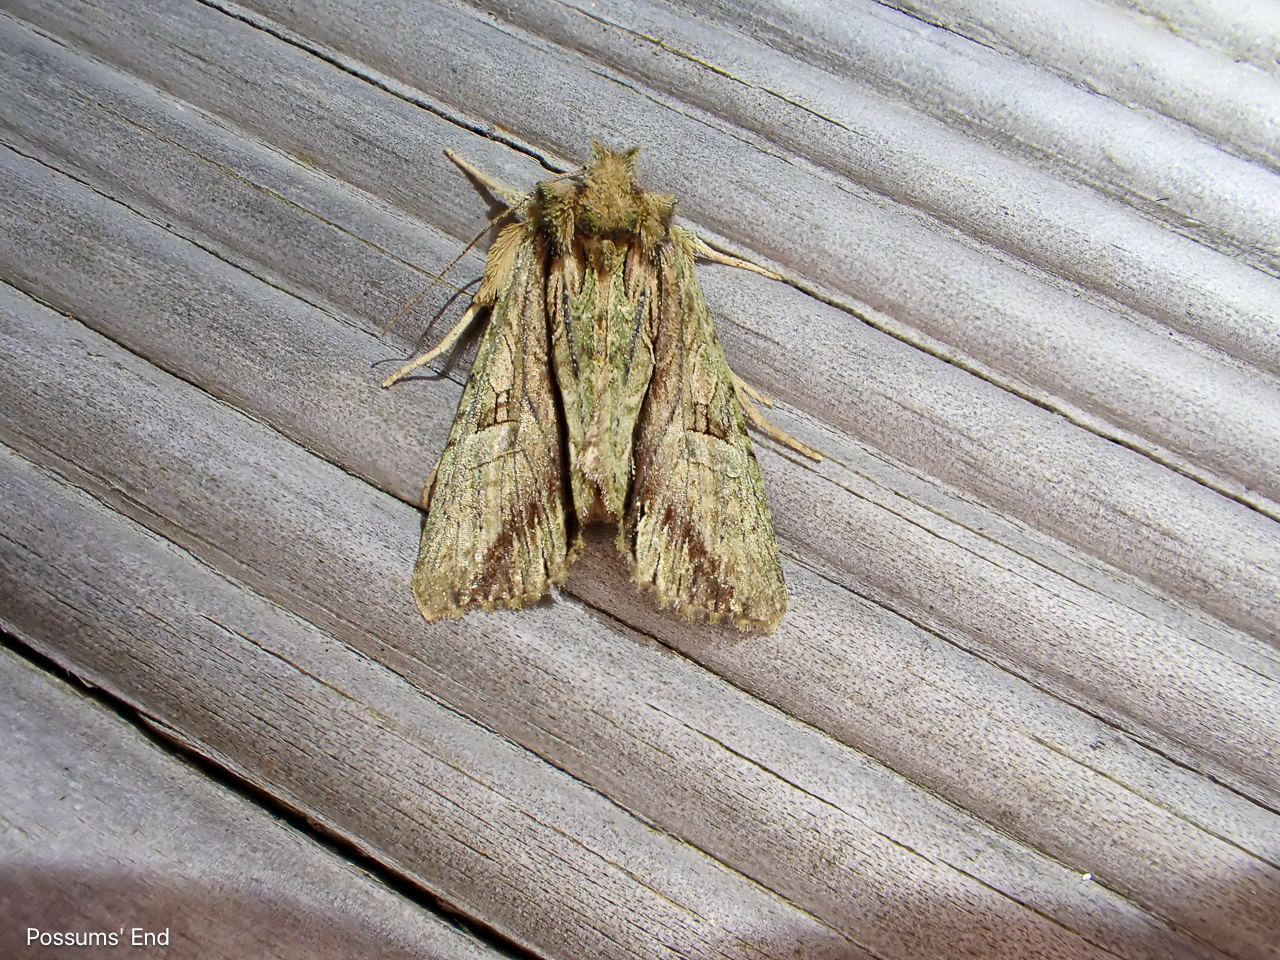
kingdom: Animalia
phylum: Arthropoda
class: Insecta
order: Lepidoptera
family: Noctuidae
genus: Meterana
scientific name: Meterana decorata
